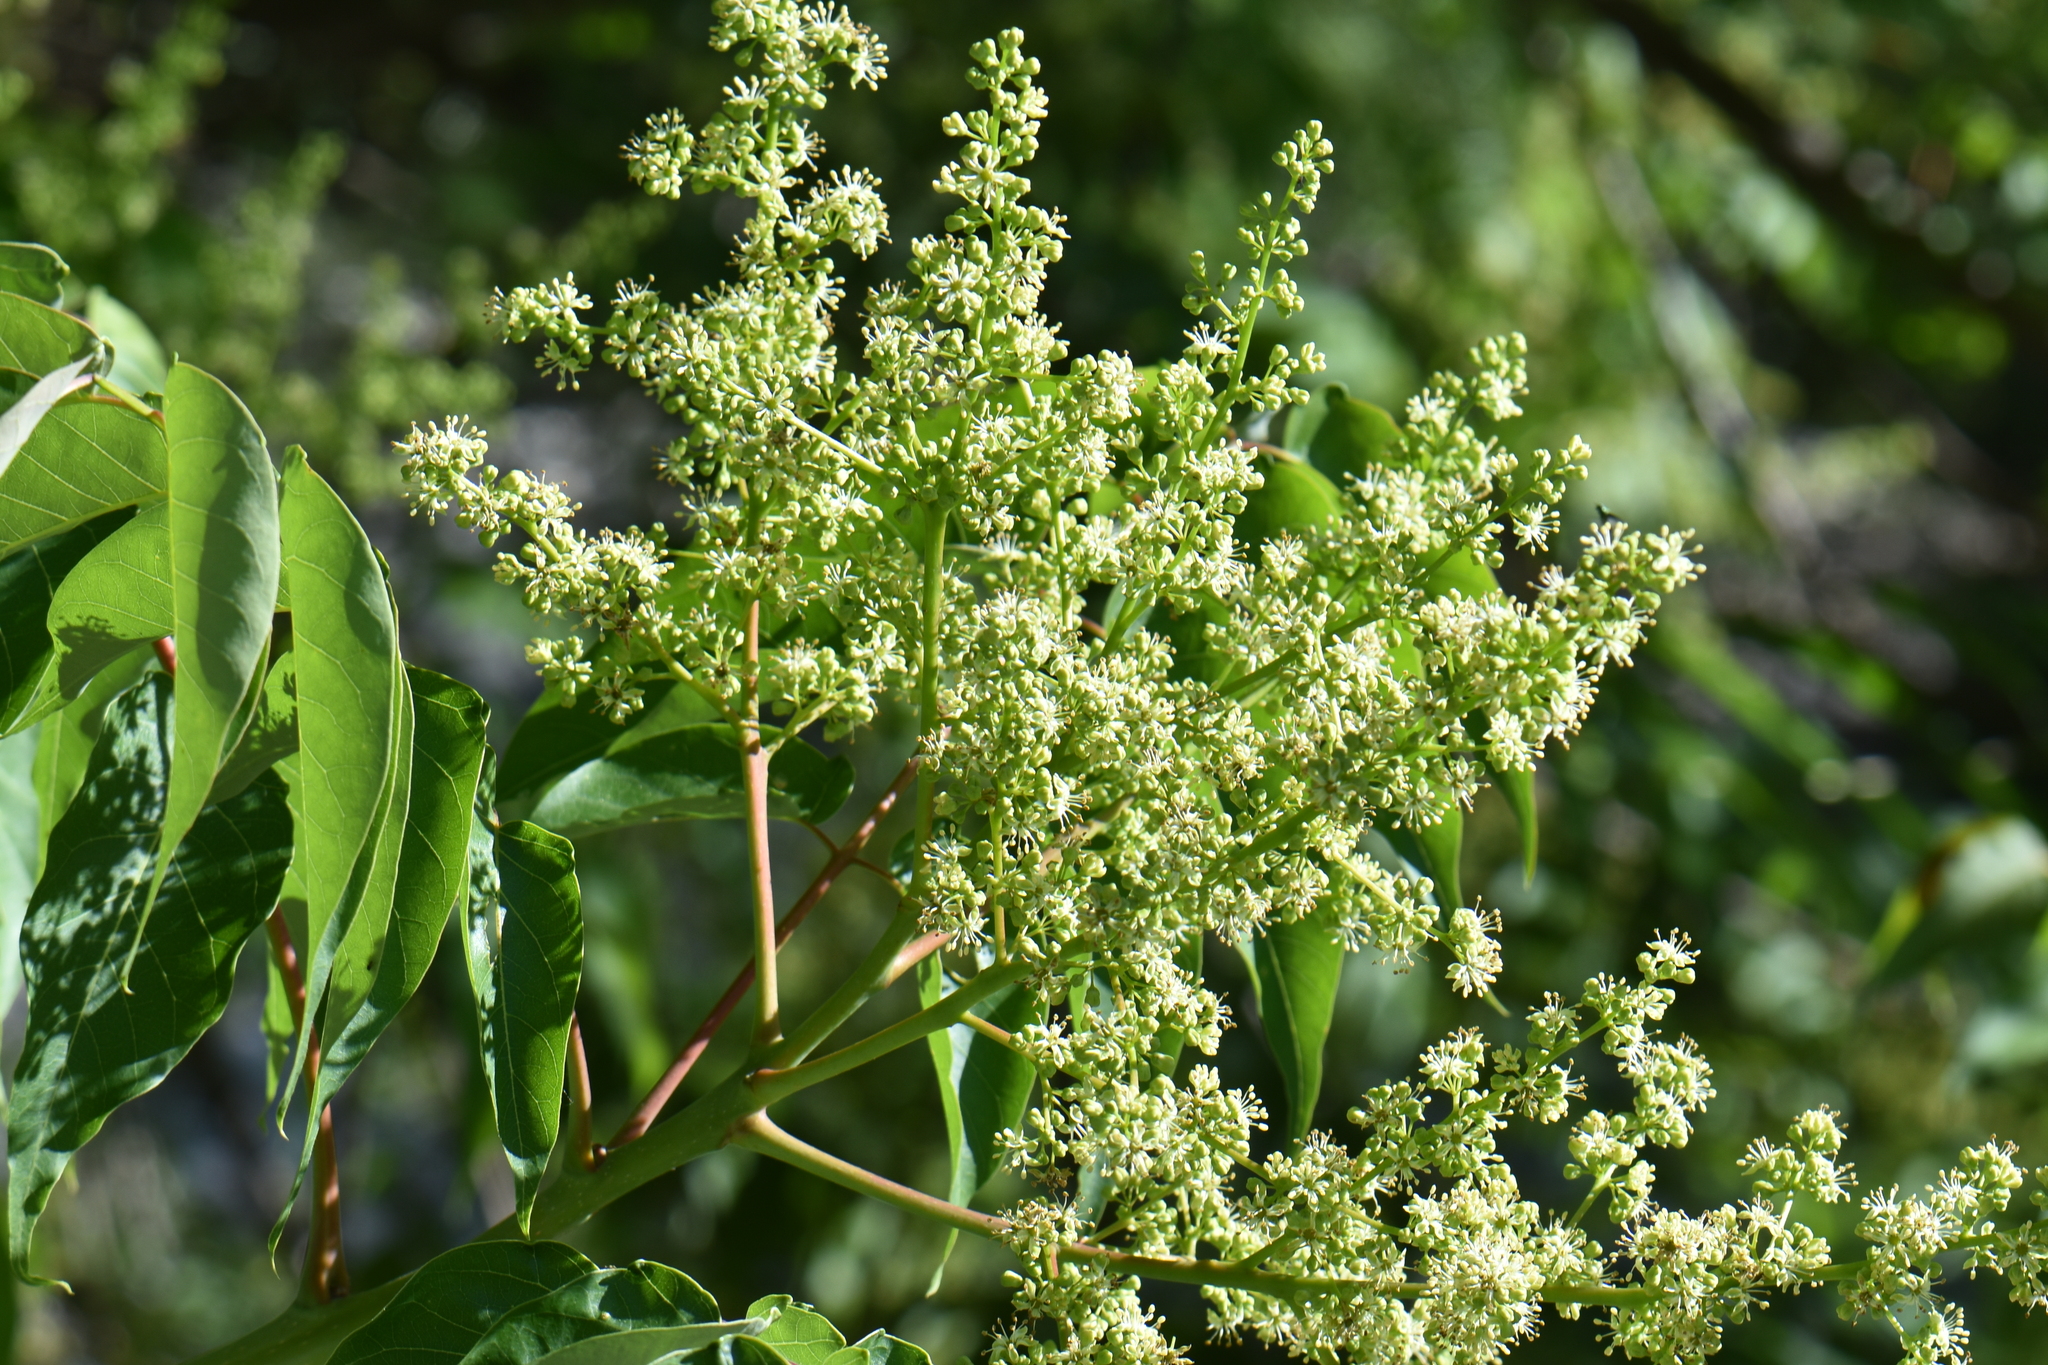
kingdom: Plantae
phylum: Tracheophyta
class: Magnoliopsida
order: Sapindales
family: Simaroubaceae
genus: Ailanthus
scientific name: Ailanthus altissima
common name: Tree-of-heaven
